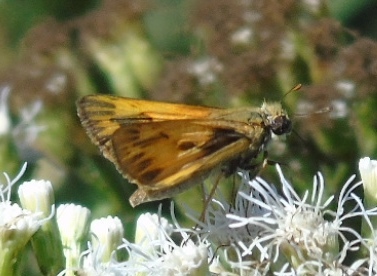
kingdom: Animalia
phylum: Arthropoda
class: Insecta
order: Lepidoptera
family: Hesperiidae
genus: Polites
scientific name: Polites
